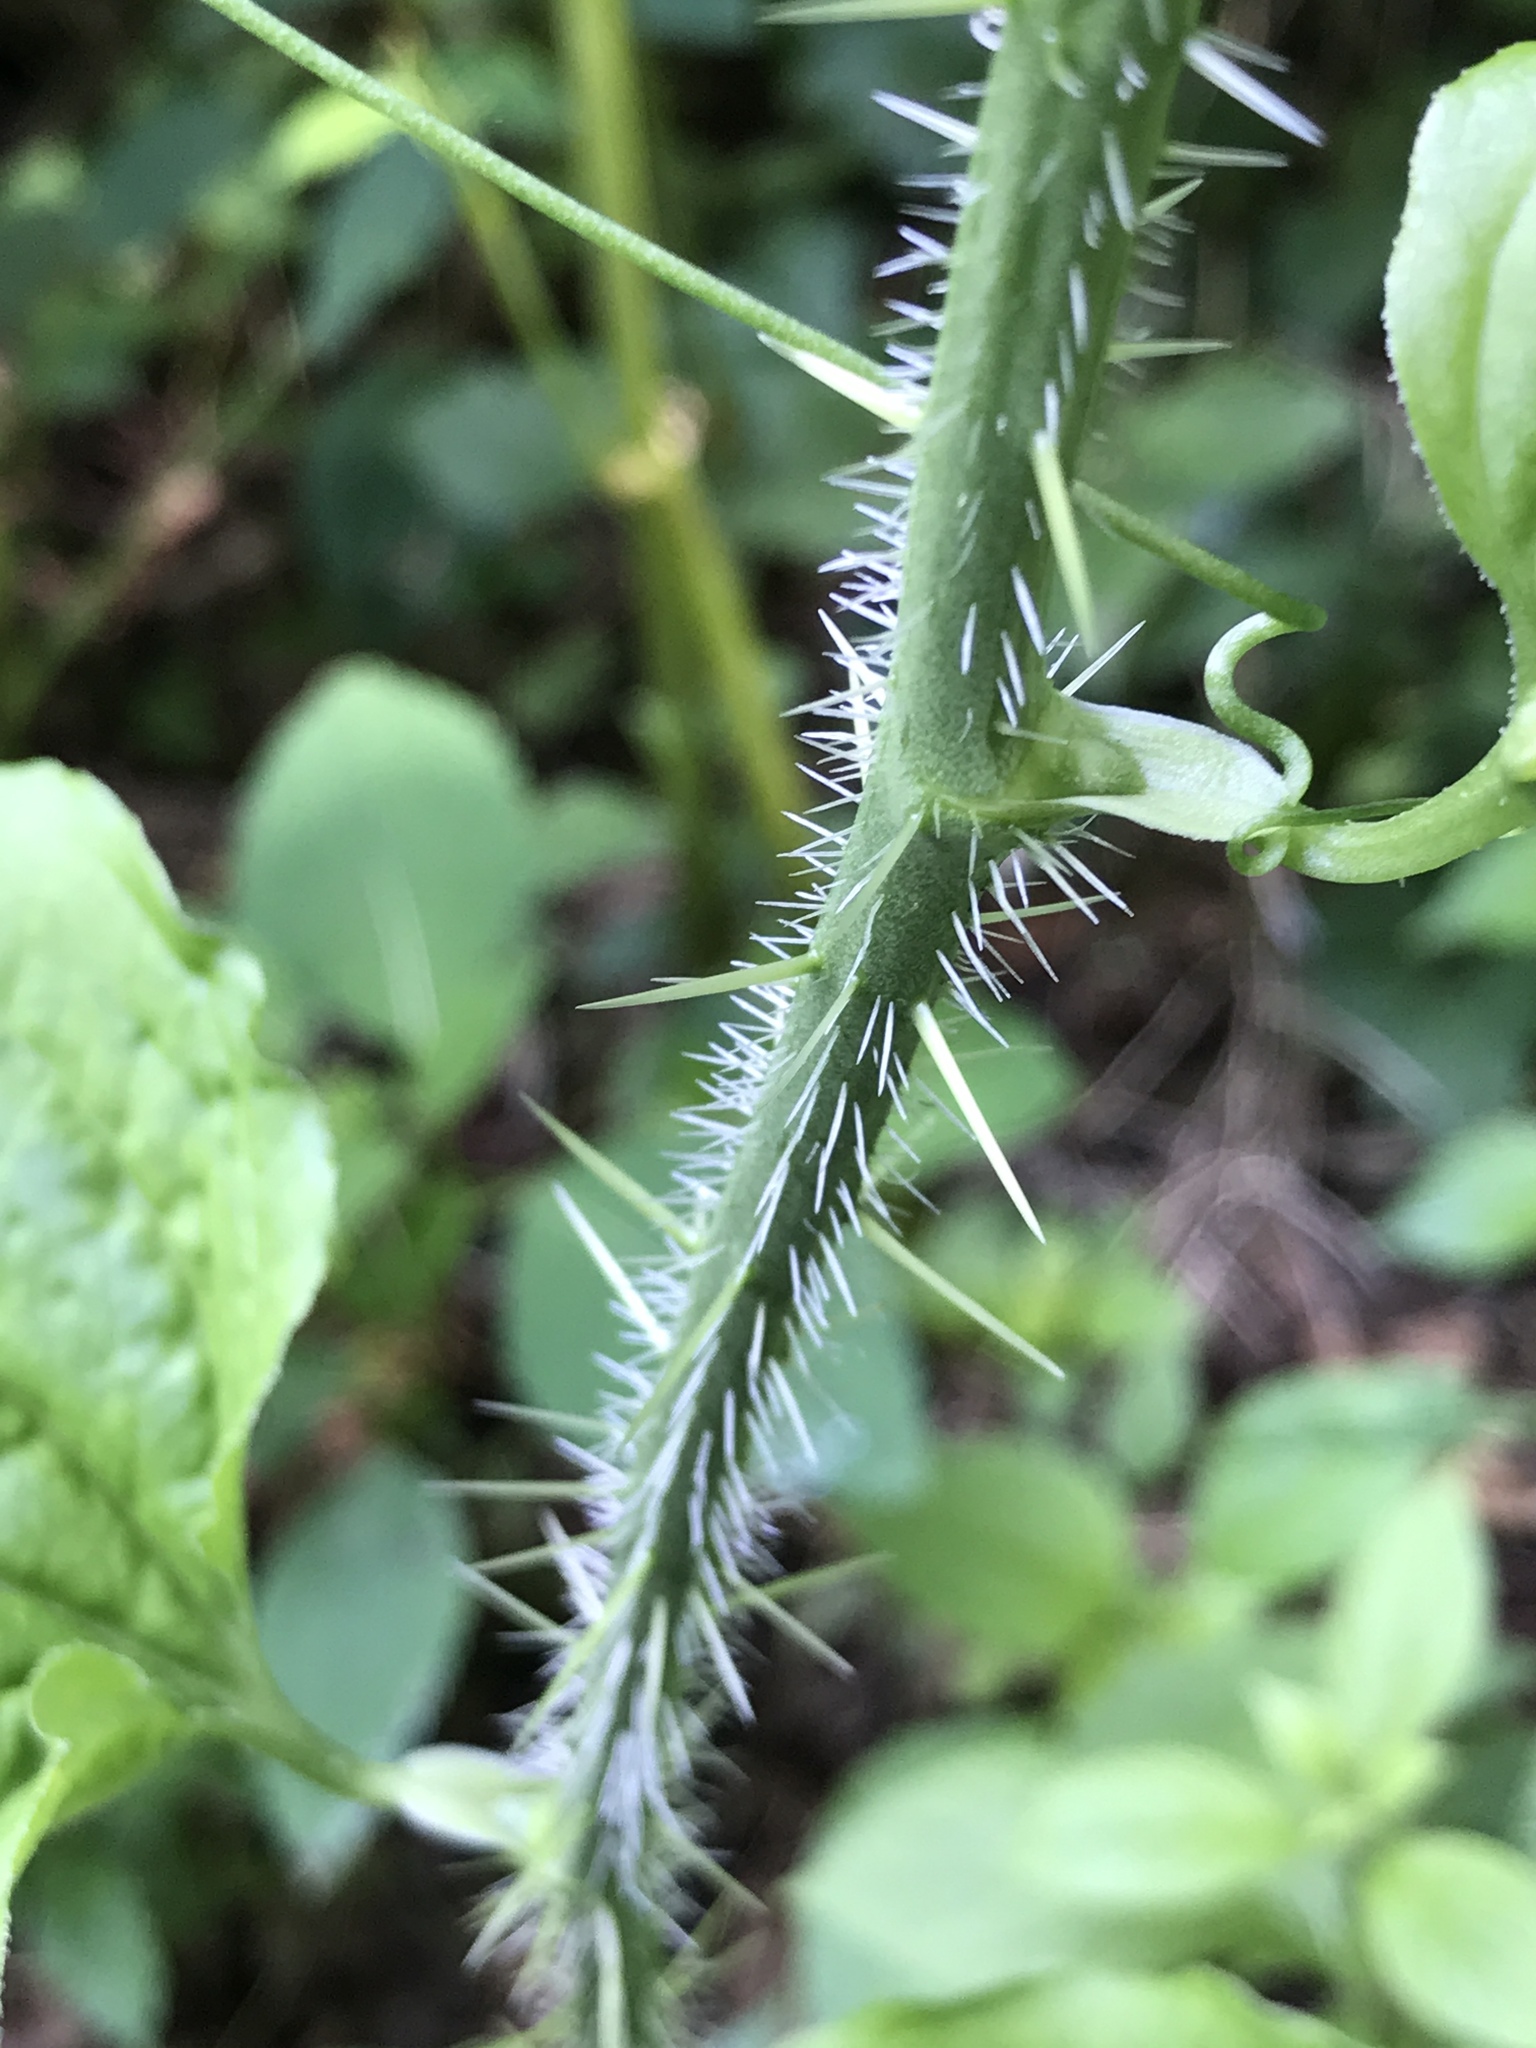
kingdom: Plantae
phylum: Tracheophyta
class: Liliopsida
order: Liliales
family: Smilacaceae
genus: Smilax
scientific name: Smilax tamnoides
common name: Hellfetter
